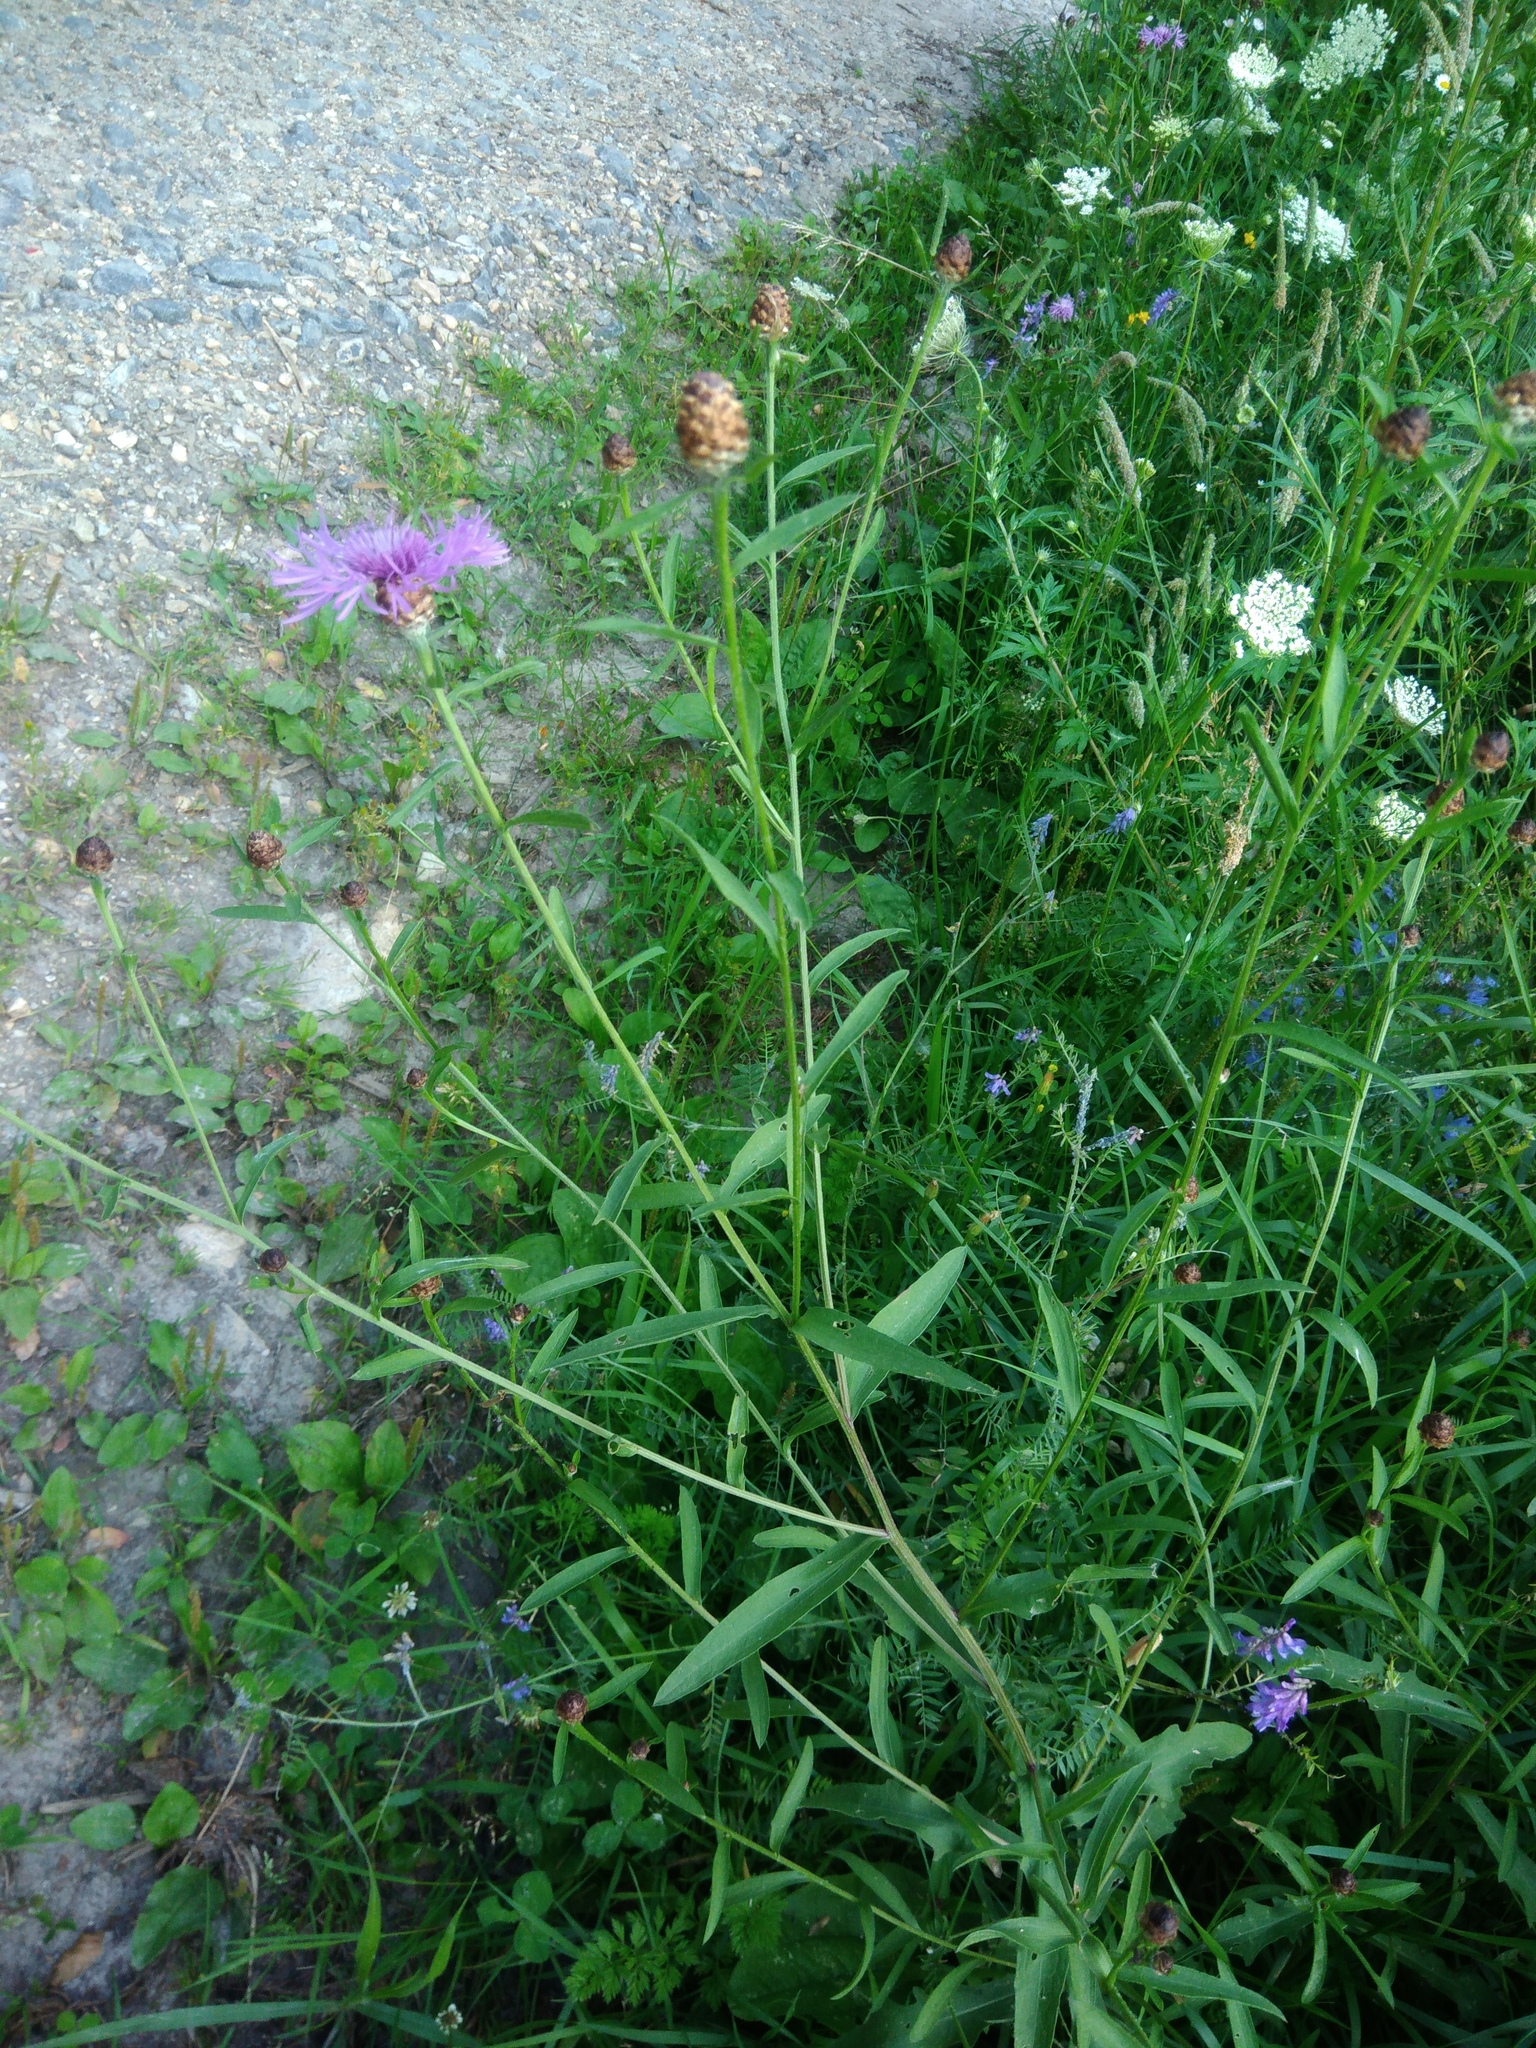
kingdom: Plantae
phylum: Tracheophyta
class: Magnoliopsida
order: Asterales
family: Asteraceae
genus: Centaurea
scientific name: Centaurea jacea
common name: Brown knapweed
